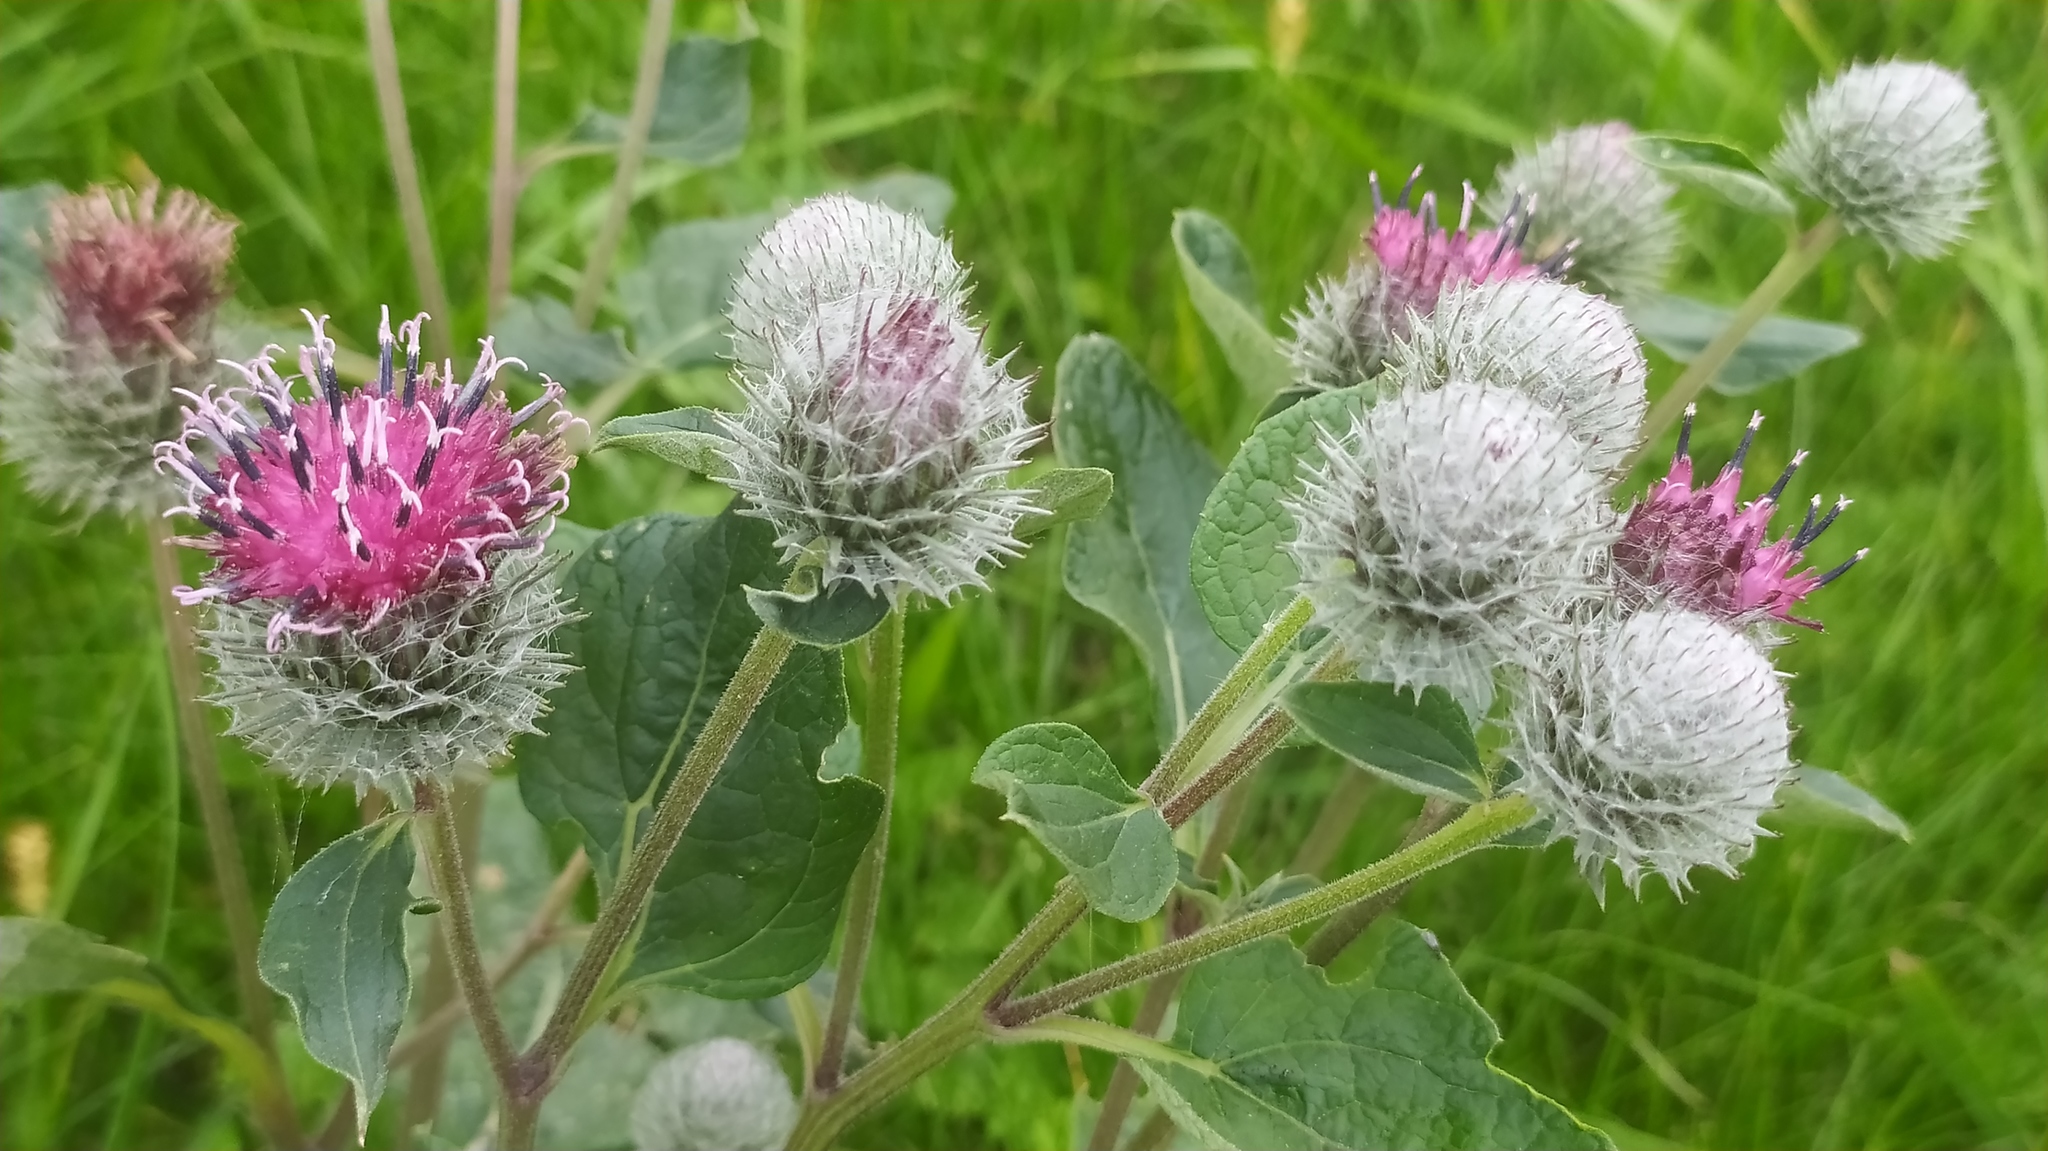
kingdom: Plantae
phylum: Tracheophyta
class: Magnoliopsida
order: Asterales
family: Asteraceae
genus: Arctium
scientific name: Arctium tomentosum
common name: Woolly burdock
